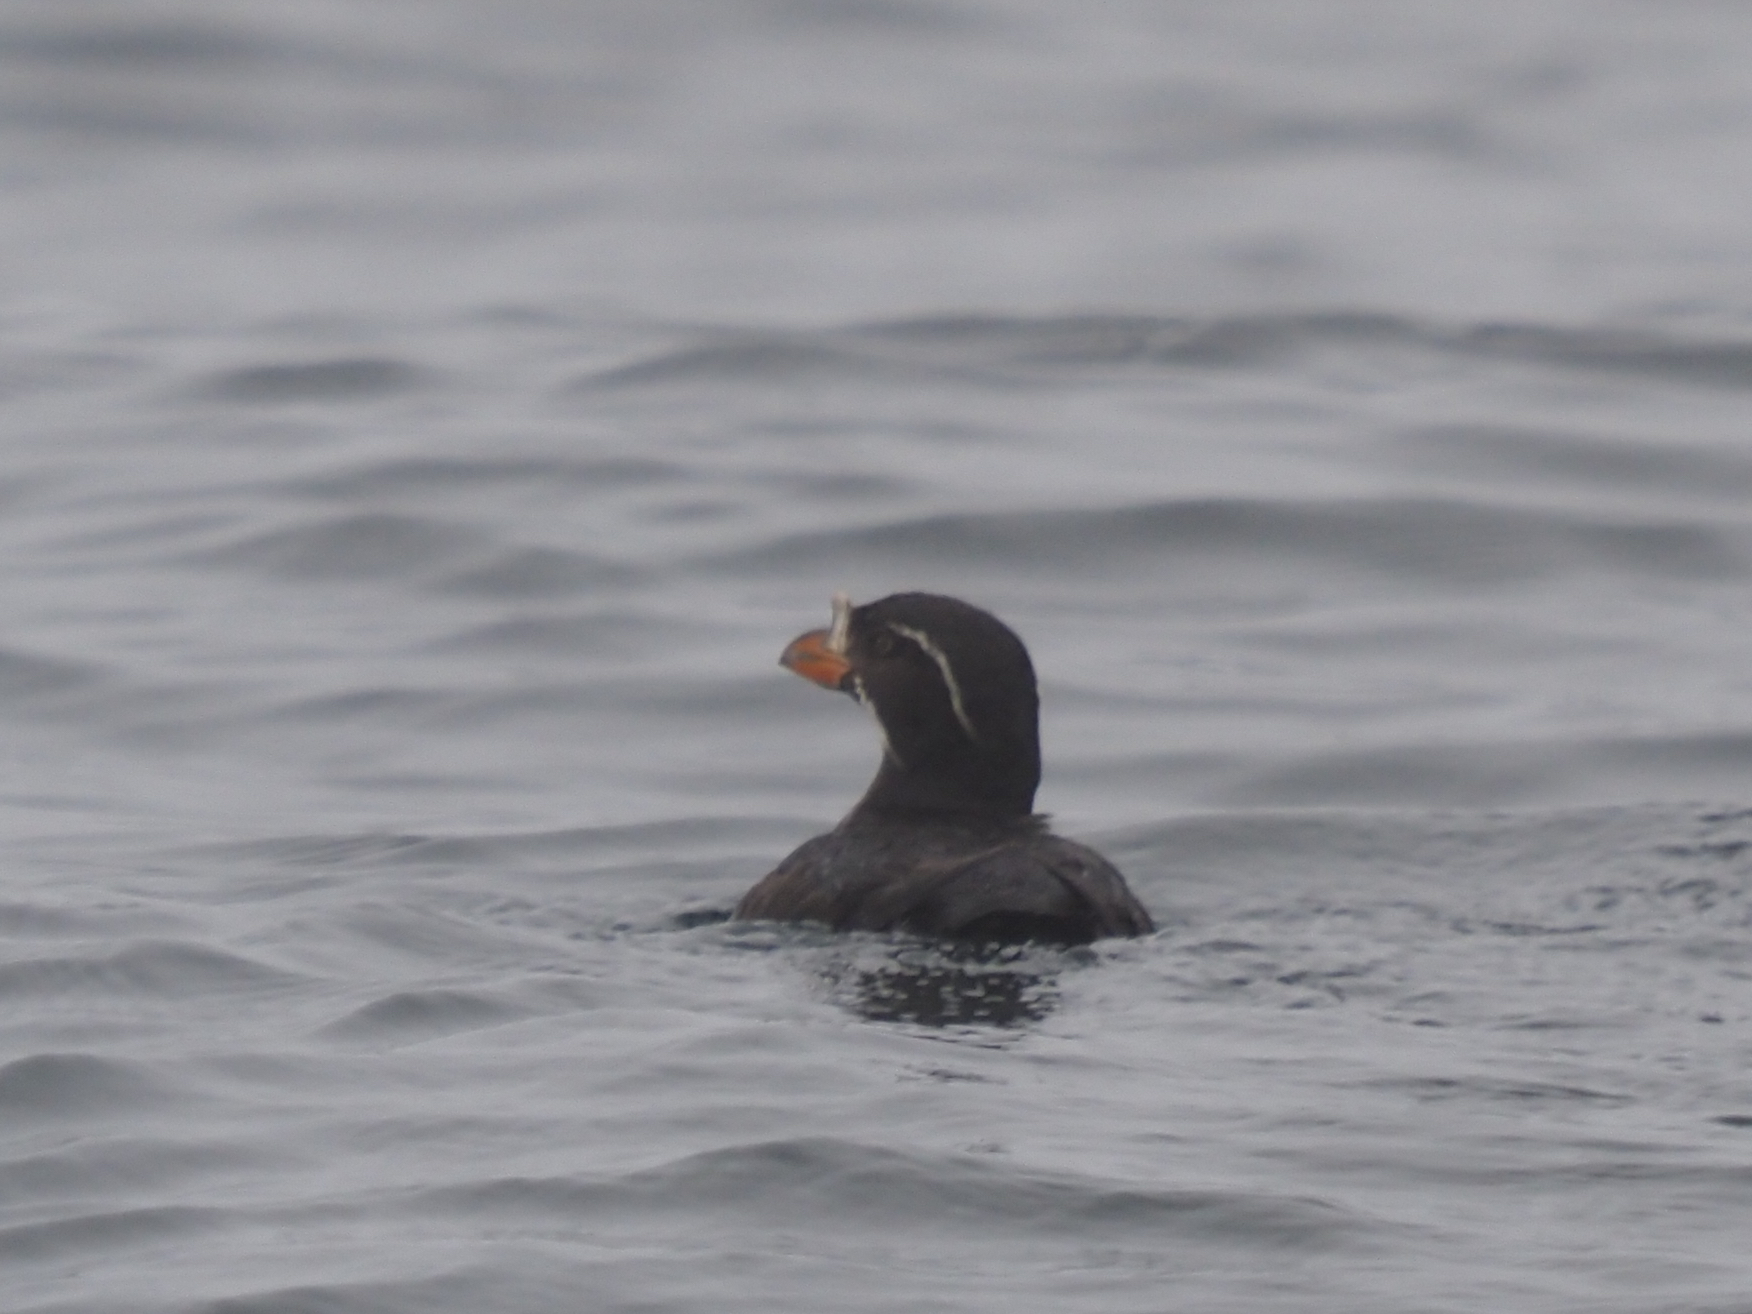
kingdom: Animalia
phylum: Chordata
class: Aves
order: Charadriiformes
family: Alcidae
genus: Cerorhinca
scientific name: Cerorhinca monocerata
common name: Rhinoceros auklet
